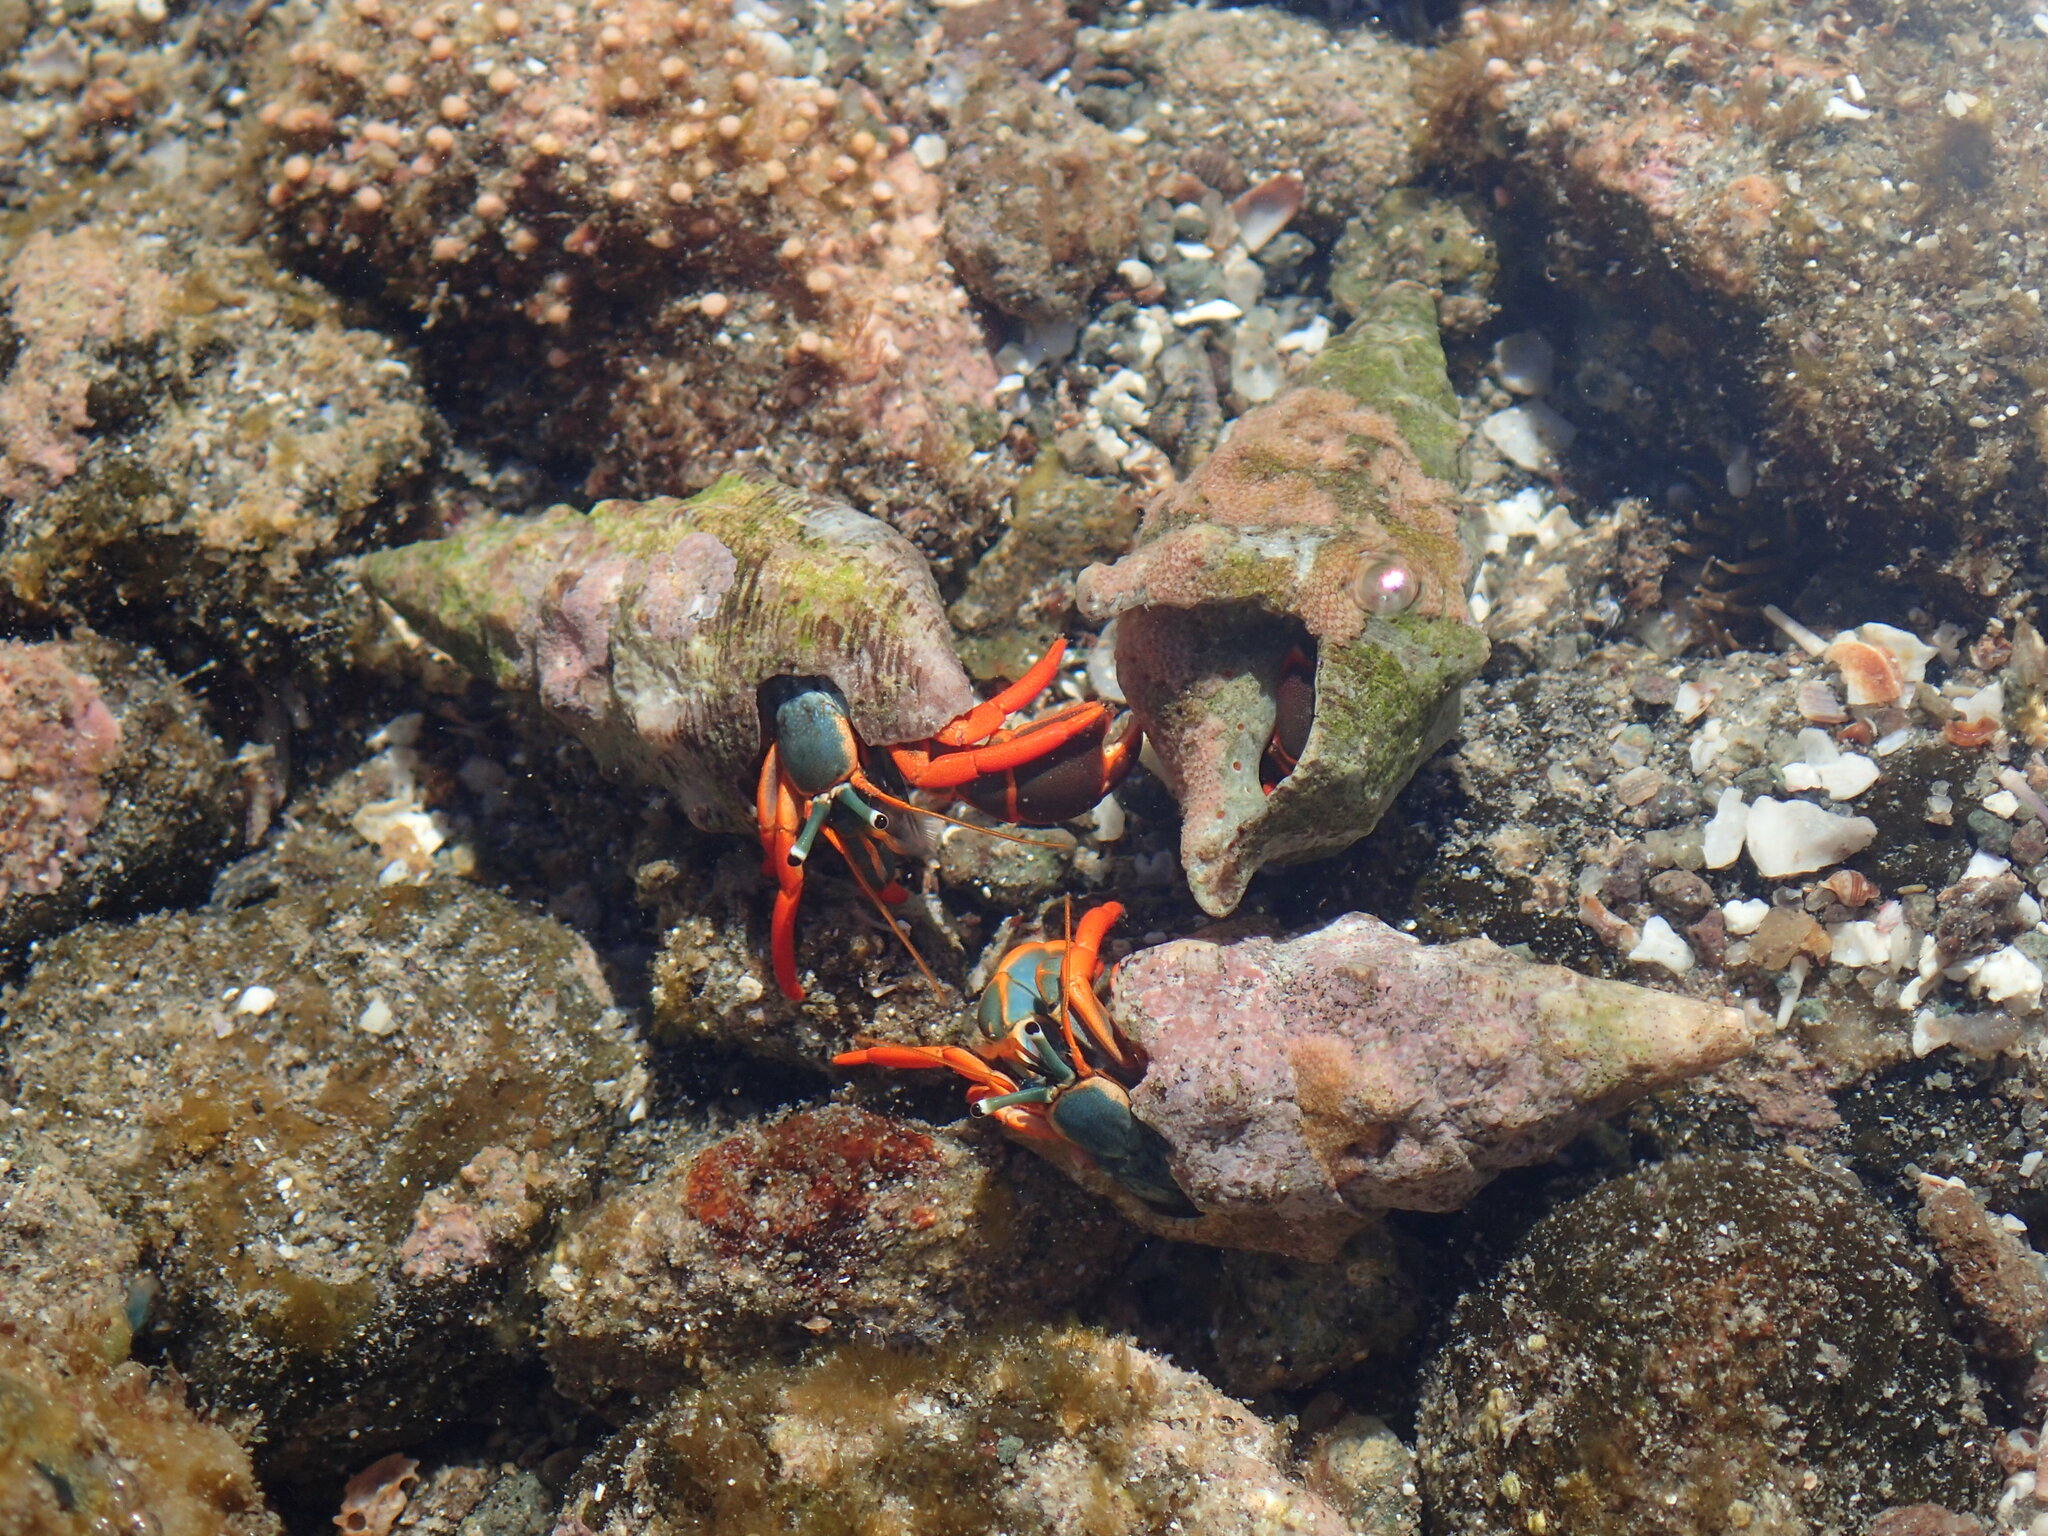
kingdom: Animalia
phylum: Arthropoda
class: Malacostraca
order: Decapoda
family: Diogenidae
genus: Calcinus
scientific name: Calcinus californiensis
